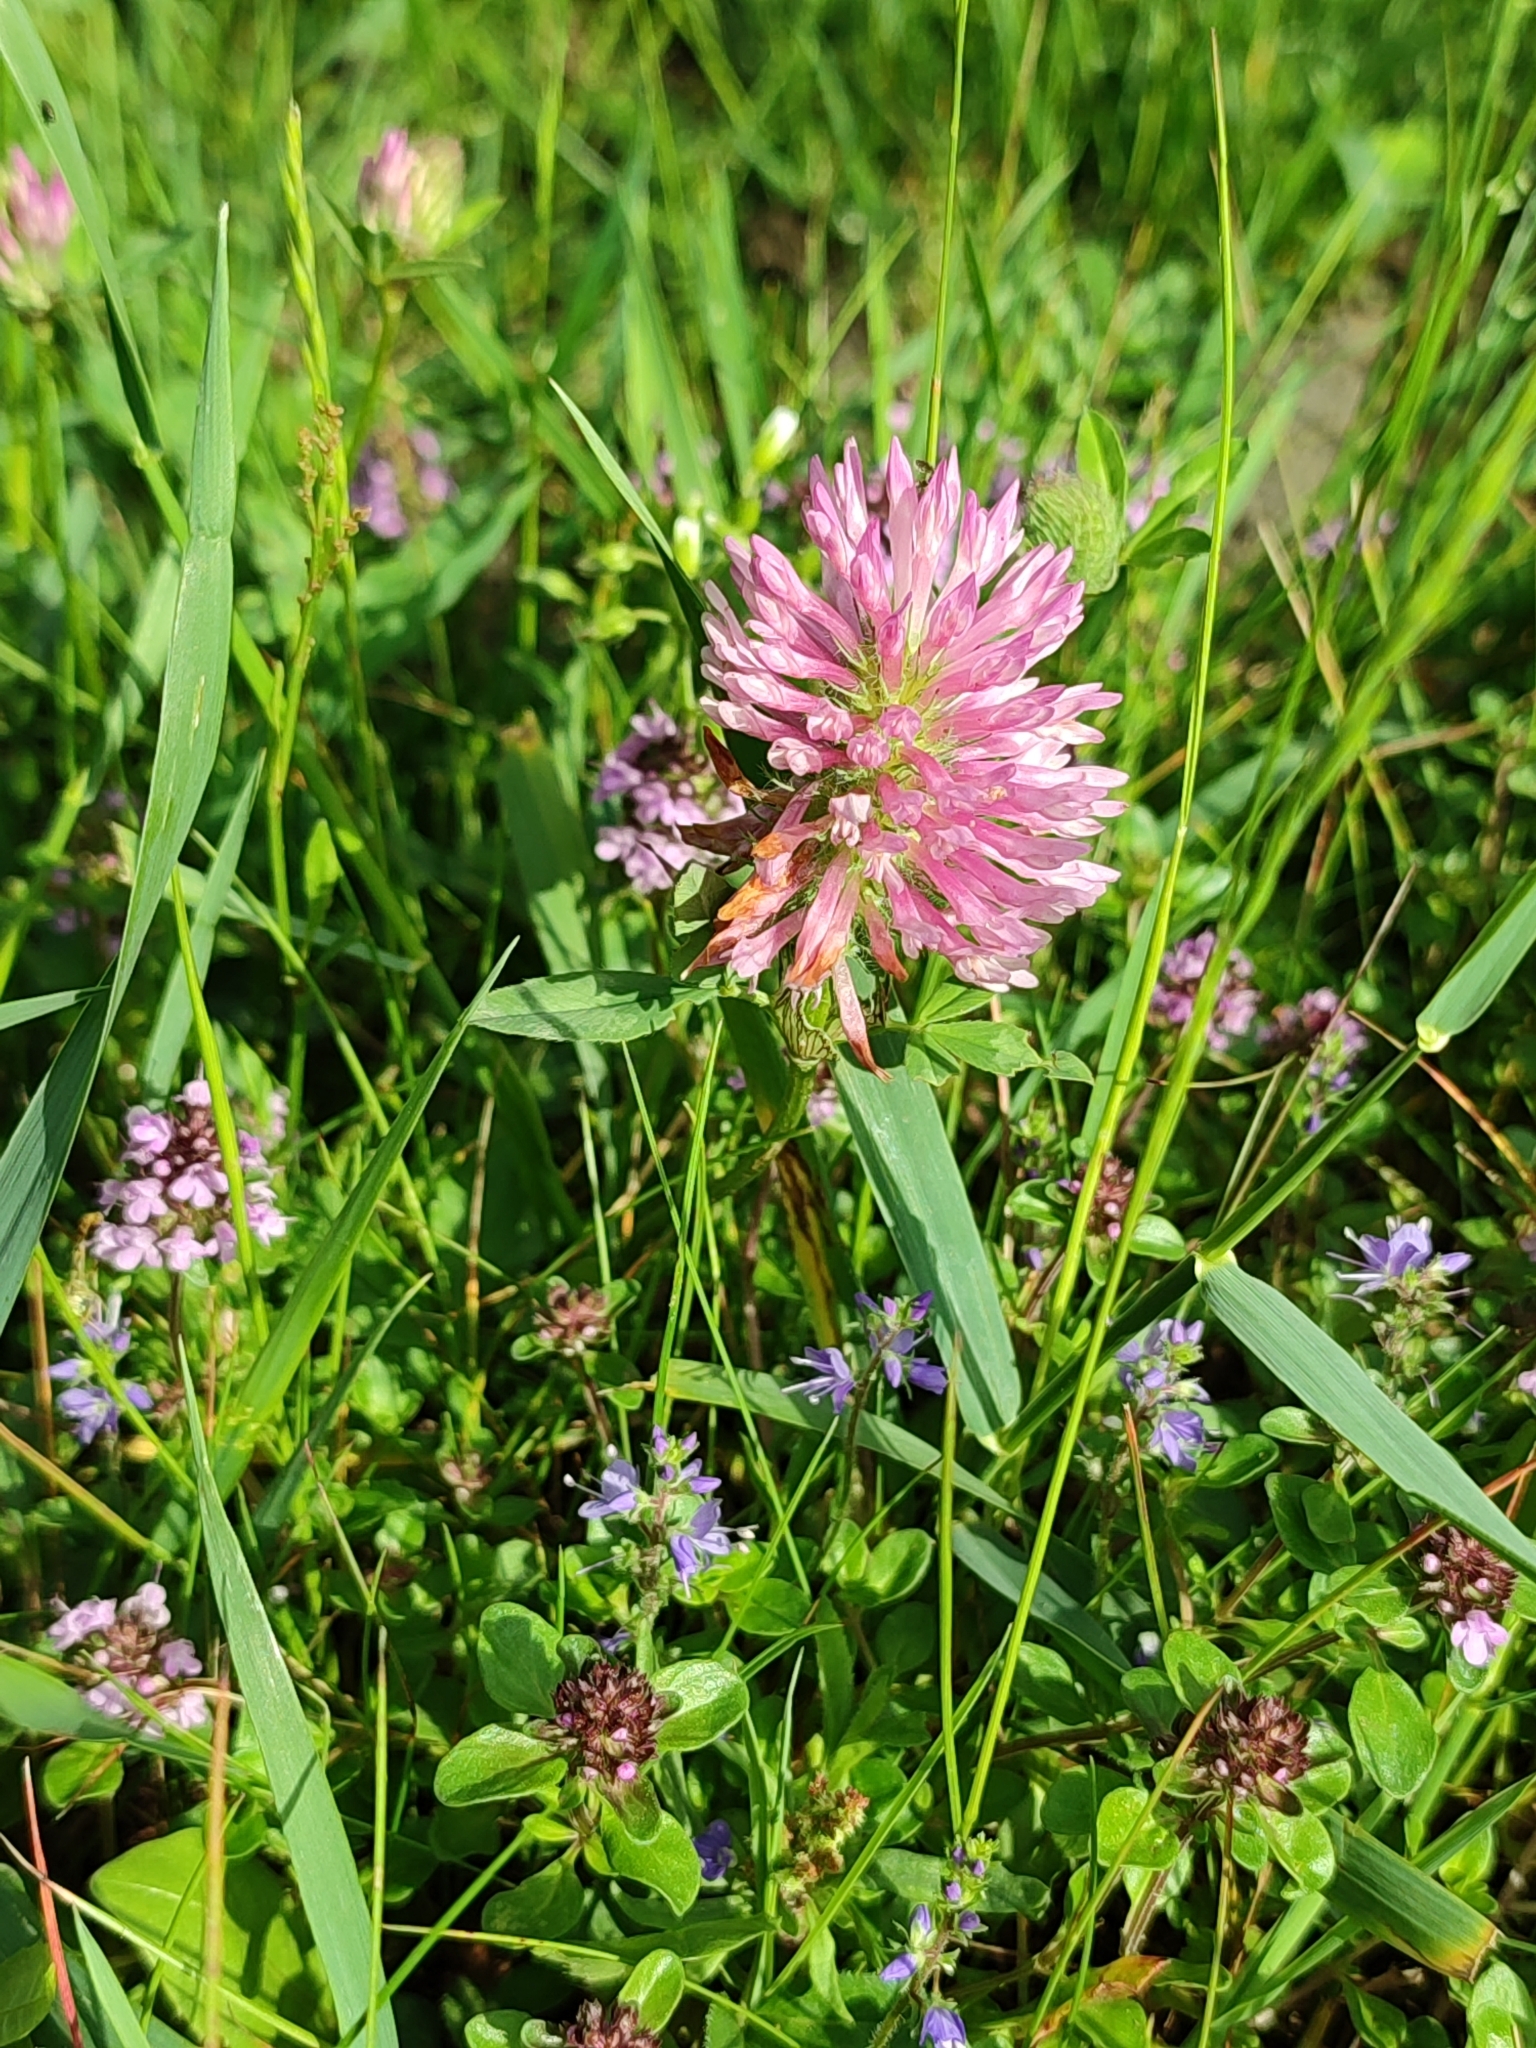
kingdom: Plantae
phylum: Tracheophyta
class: Magnoliopsida
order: Fabales
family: Fabaceae
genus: Trifolium
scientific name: Trifolium pratense
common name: Red clover
